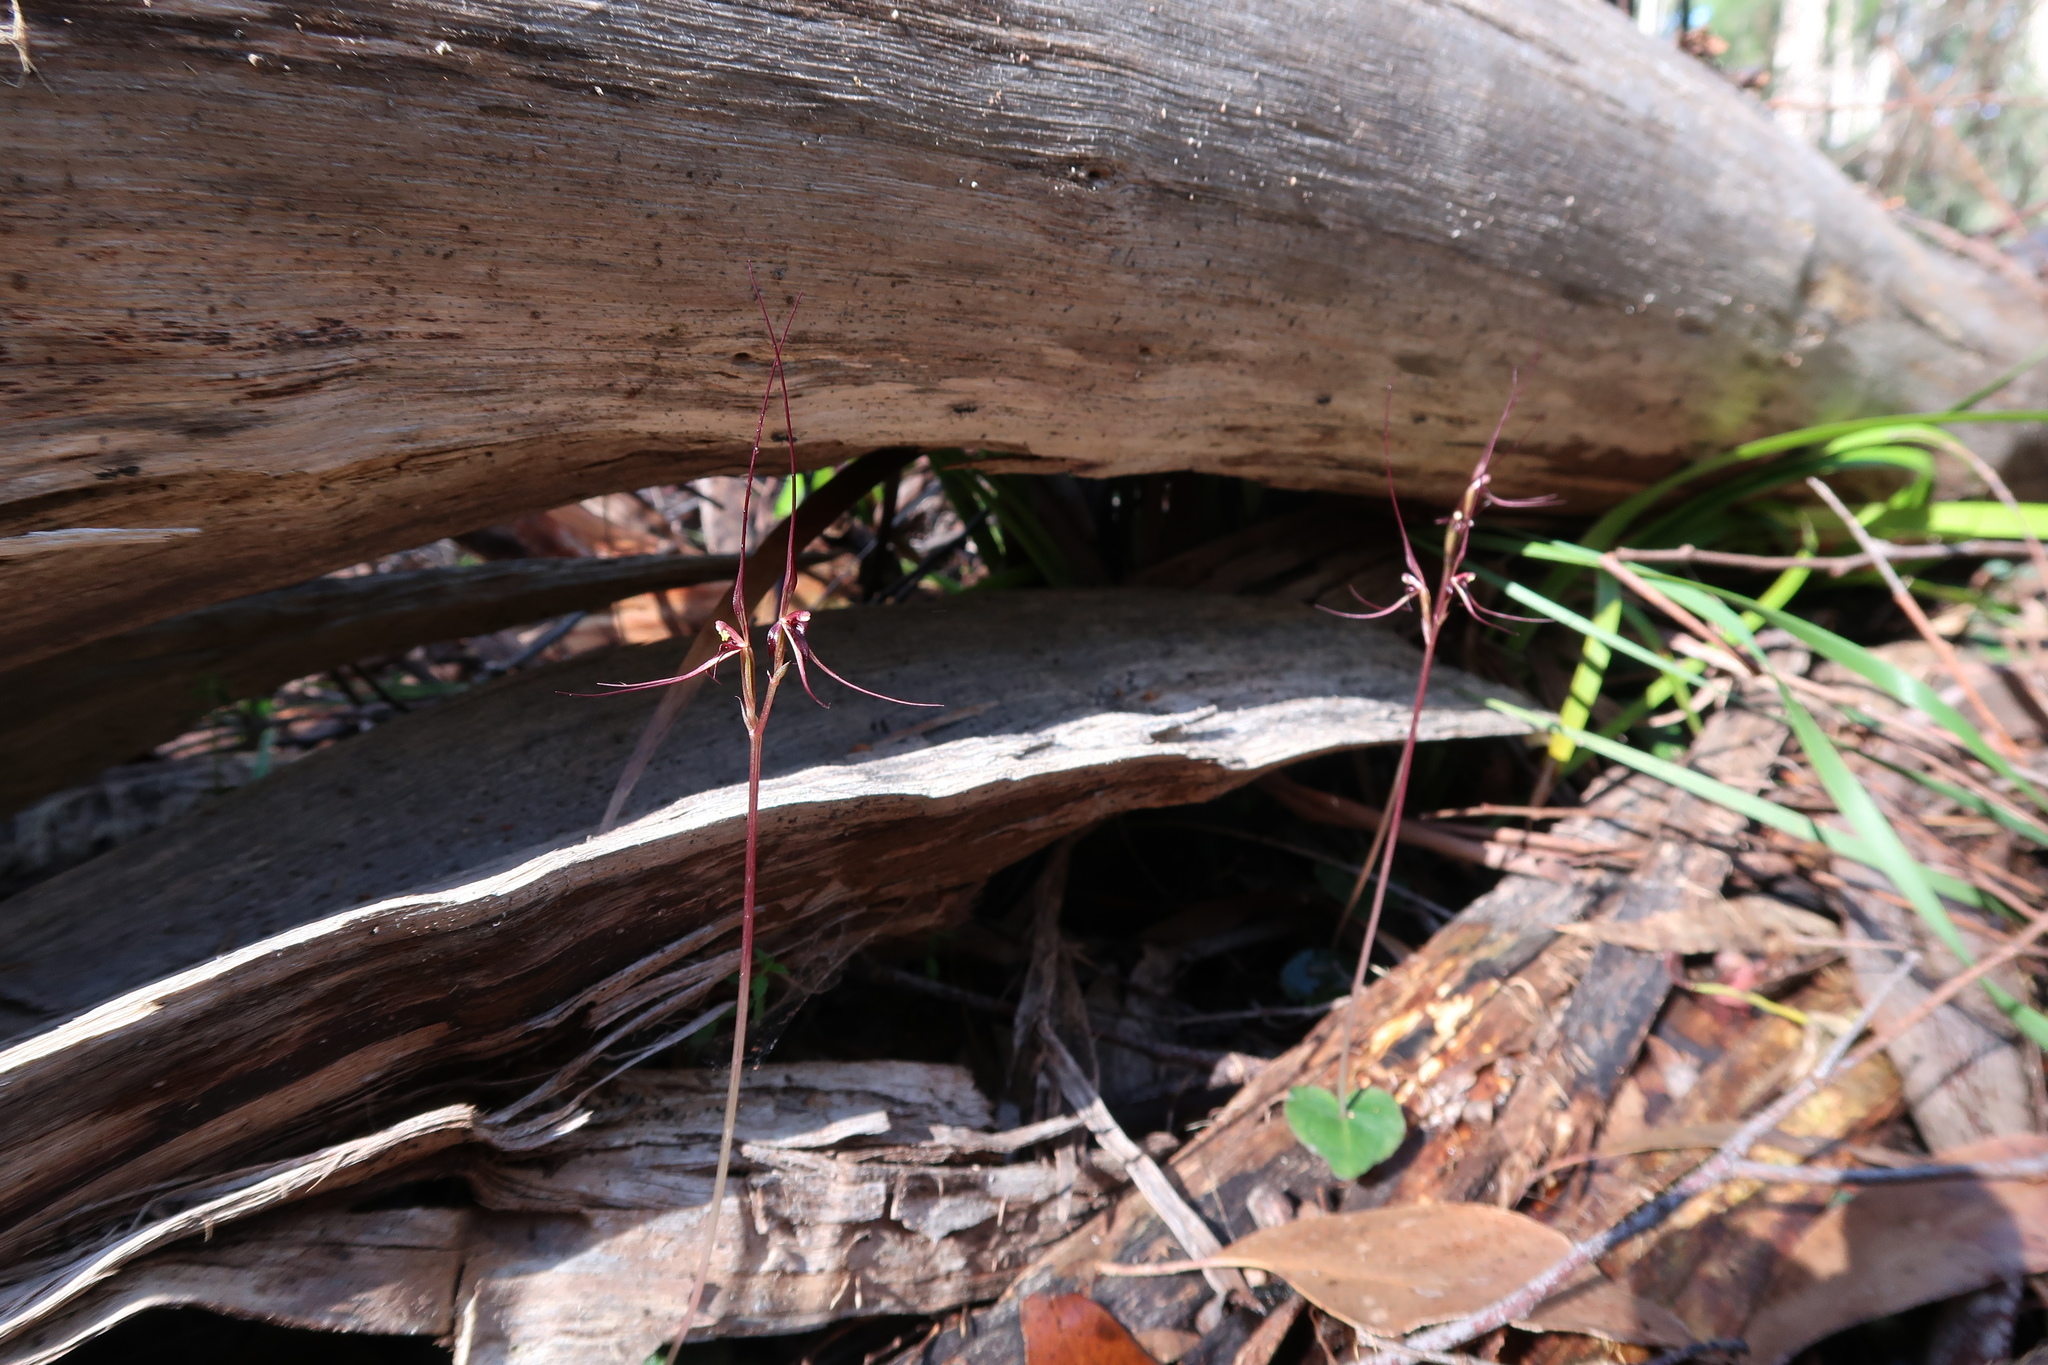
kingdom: Plantae
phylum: Tracheophyta
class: Liliopsida
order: Asparagales
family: Orchidaceae
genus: Acianthus
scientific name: Acianthus caudatus
